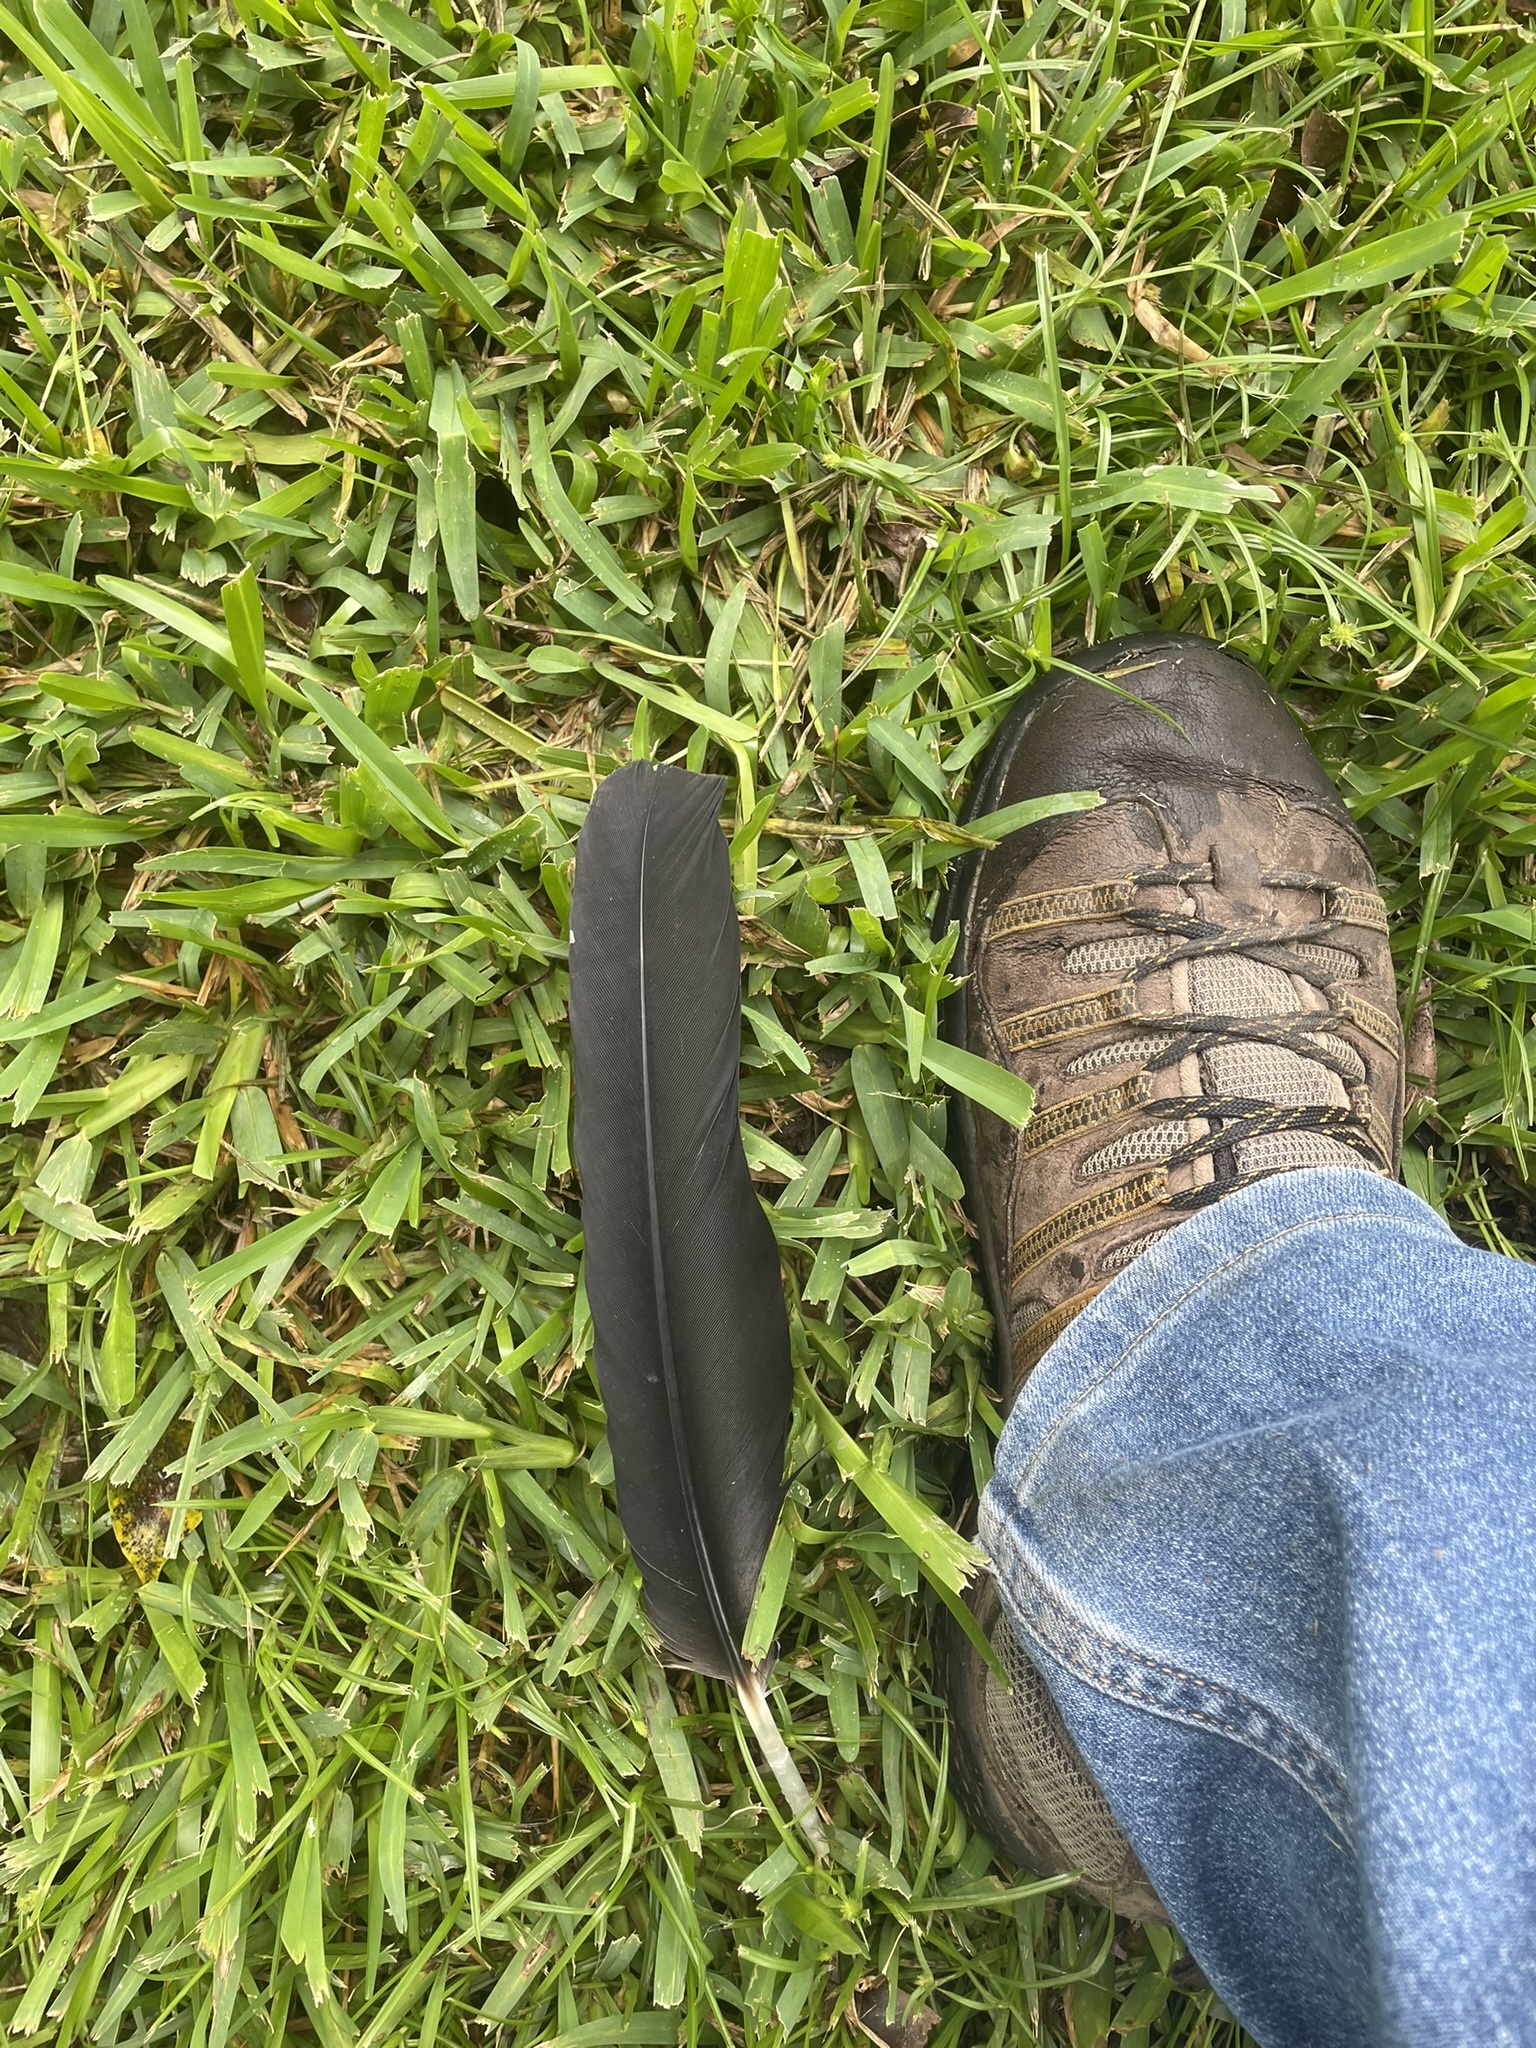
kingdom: Animalia
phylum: Chordata
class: Aves
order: Accipitriformes
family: Cathartidae
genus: Coragyps
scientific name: Coragyps atratus
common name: Black vulture
